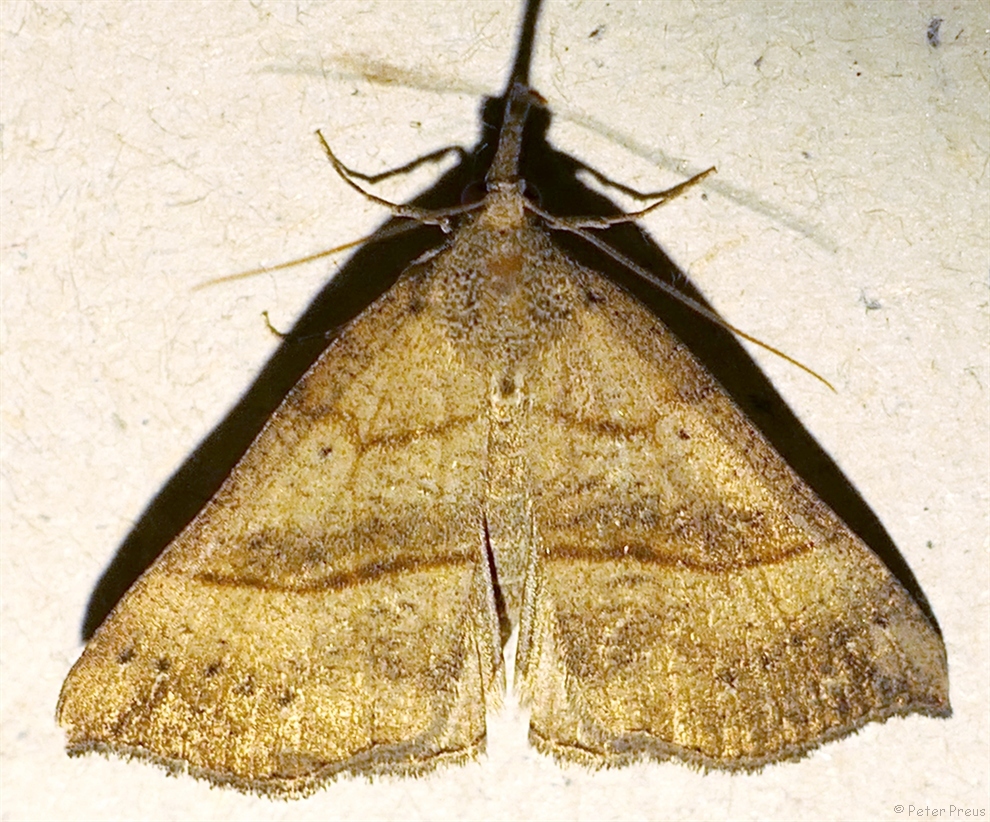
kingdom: Animalia
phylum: Arthropoda
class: Insecta
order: Lepidoptera
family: Erebidae
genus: Hypena
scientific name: Hypena proboscidalis
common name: Snout
